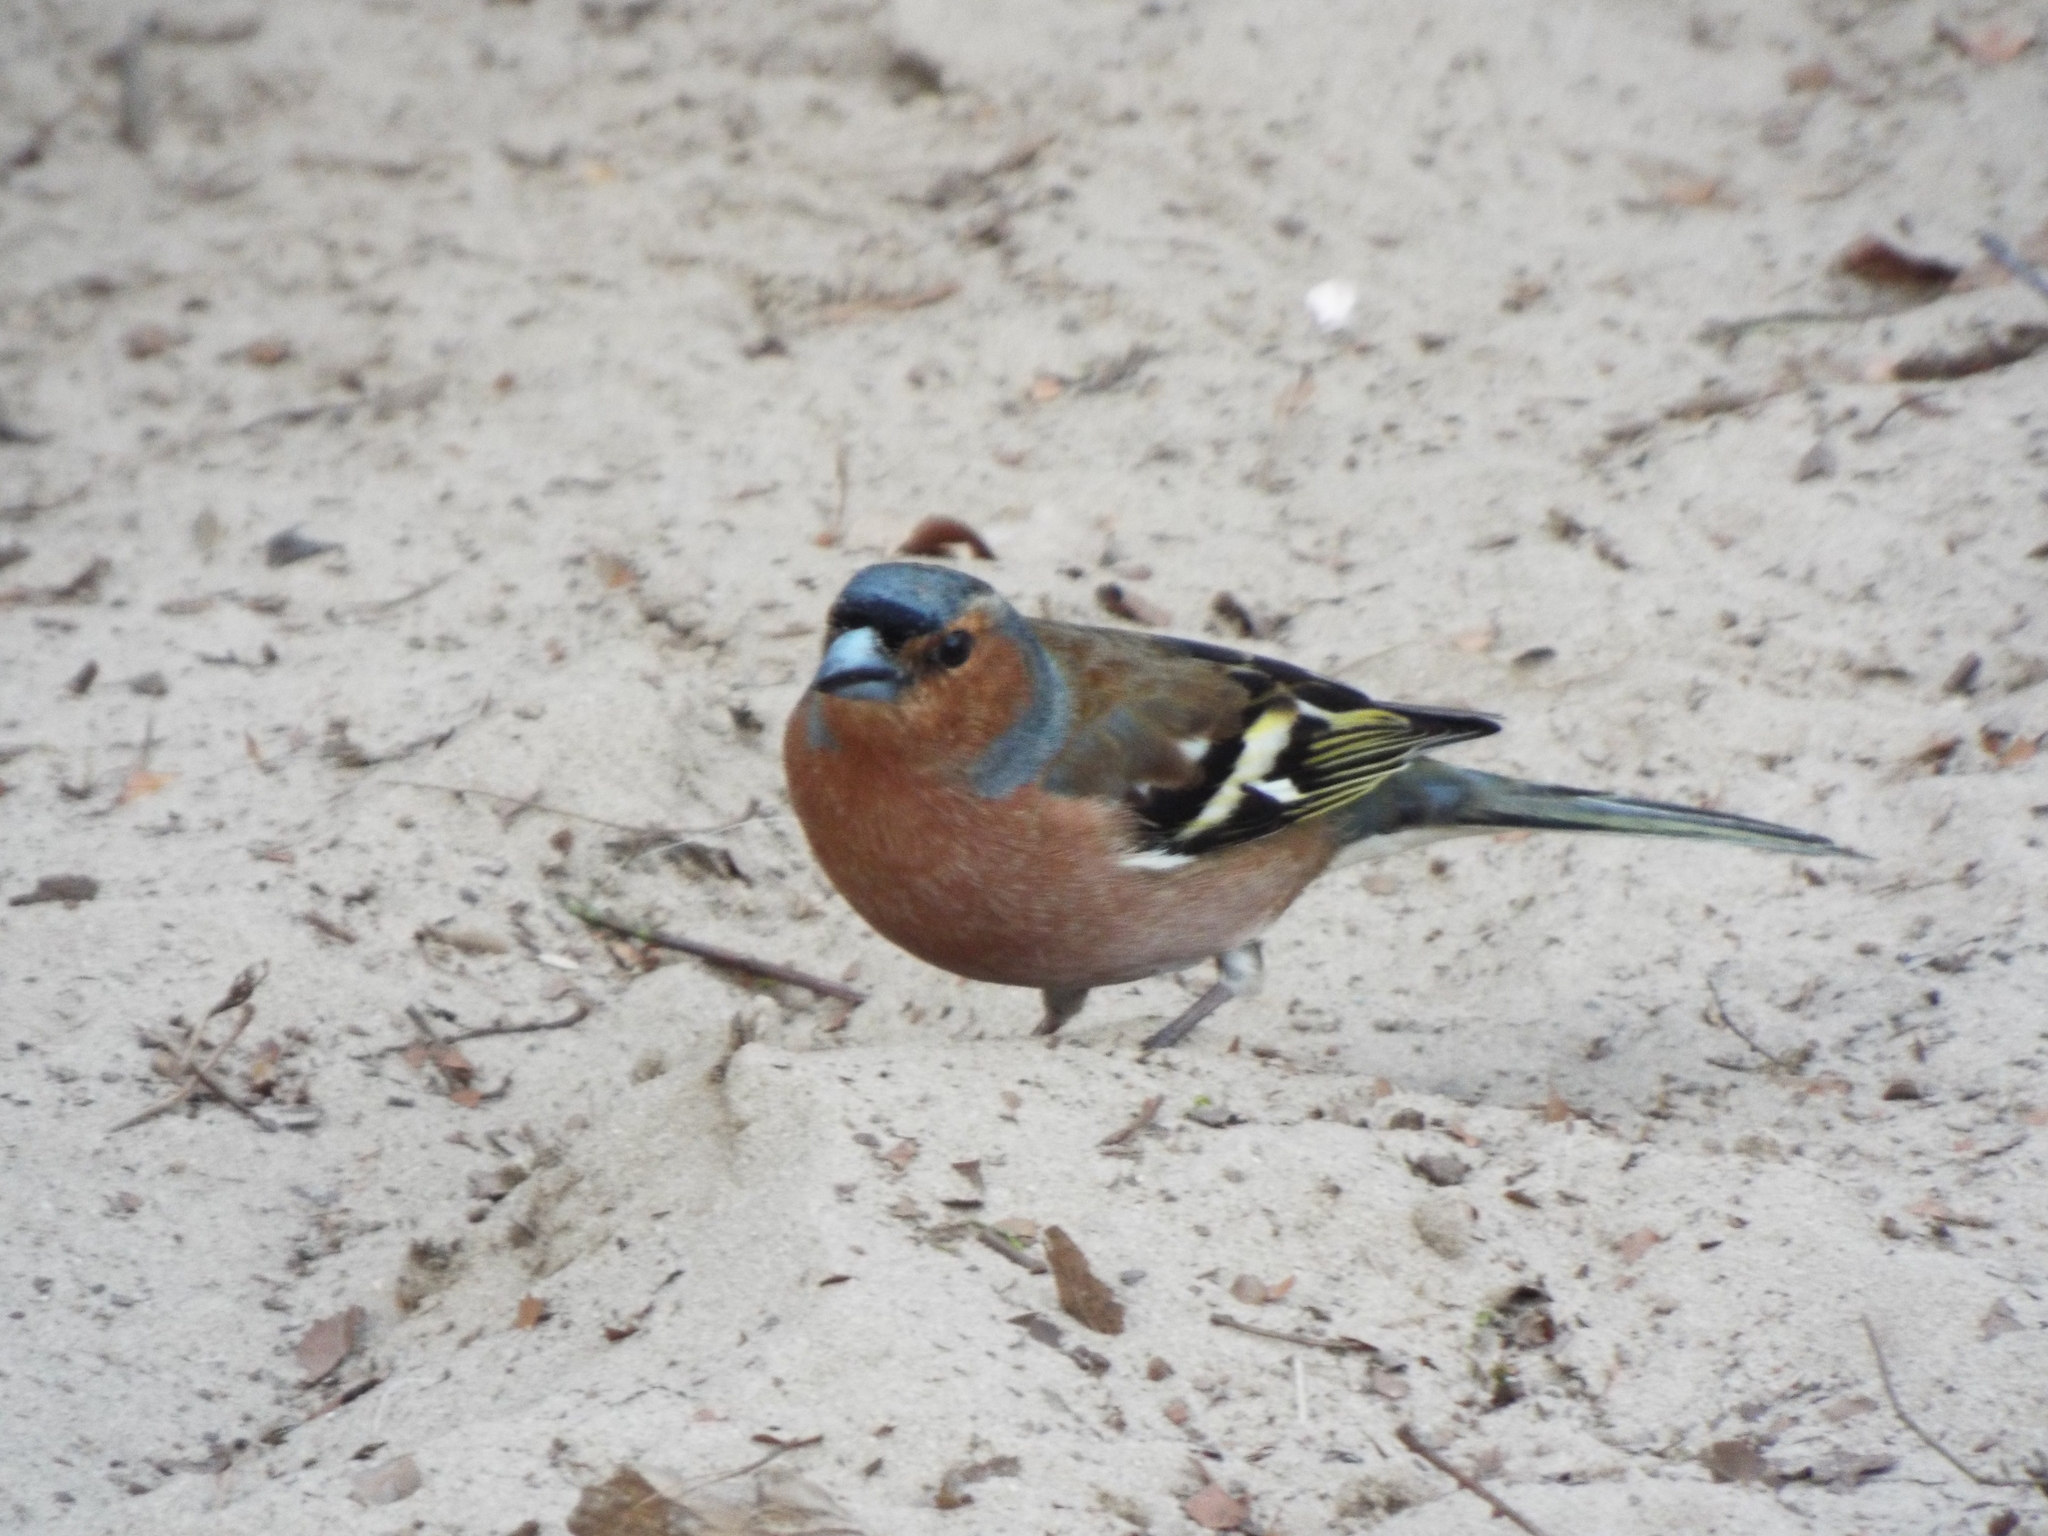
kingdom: Animalia
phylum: Chordata
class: Aves
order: Passeriformes
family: Fringillidae
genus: Fringilla
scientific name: Fringilla coelebs
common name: Common chaffinch
